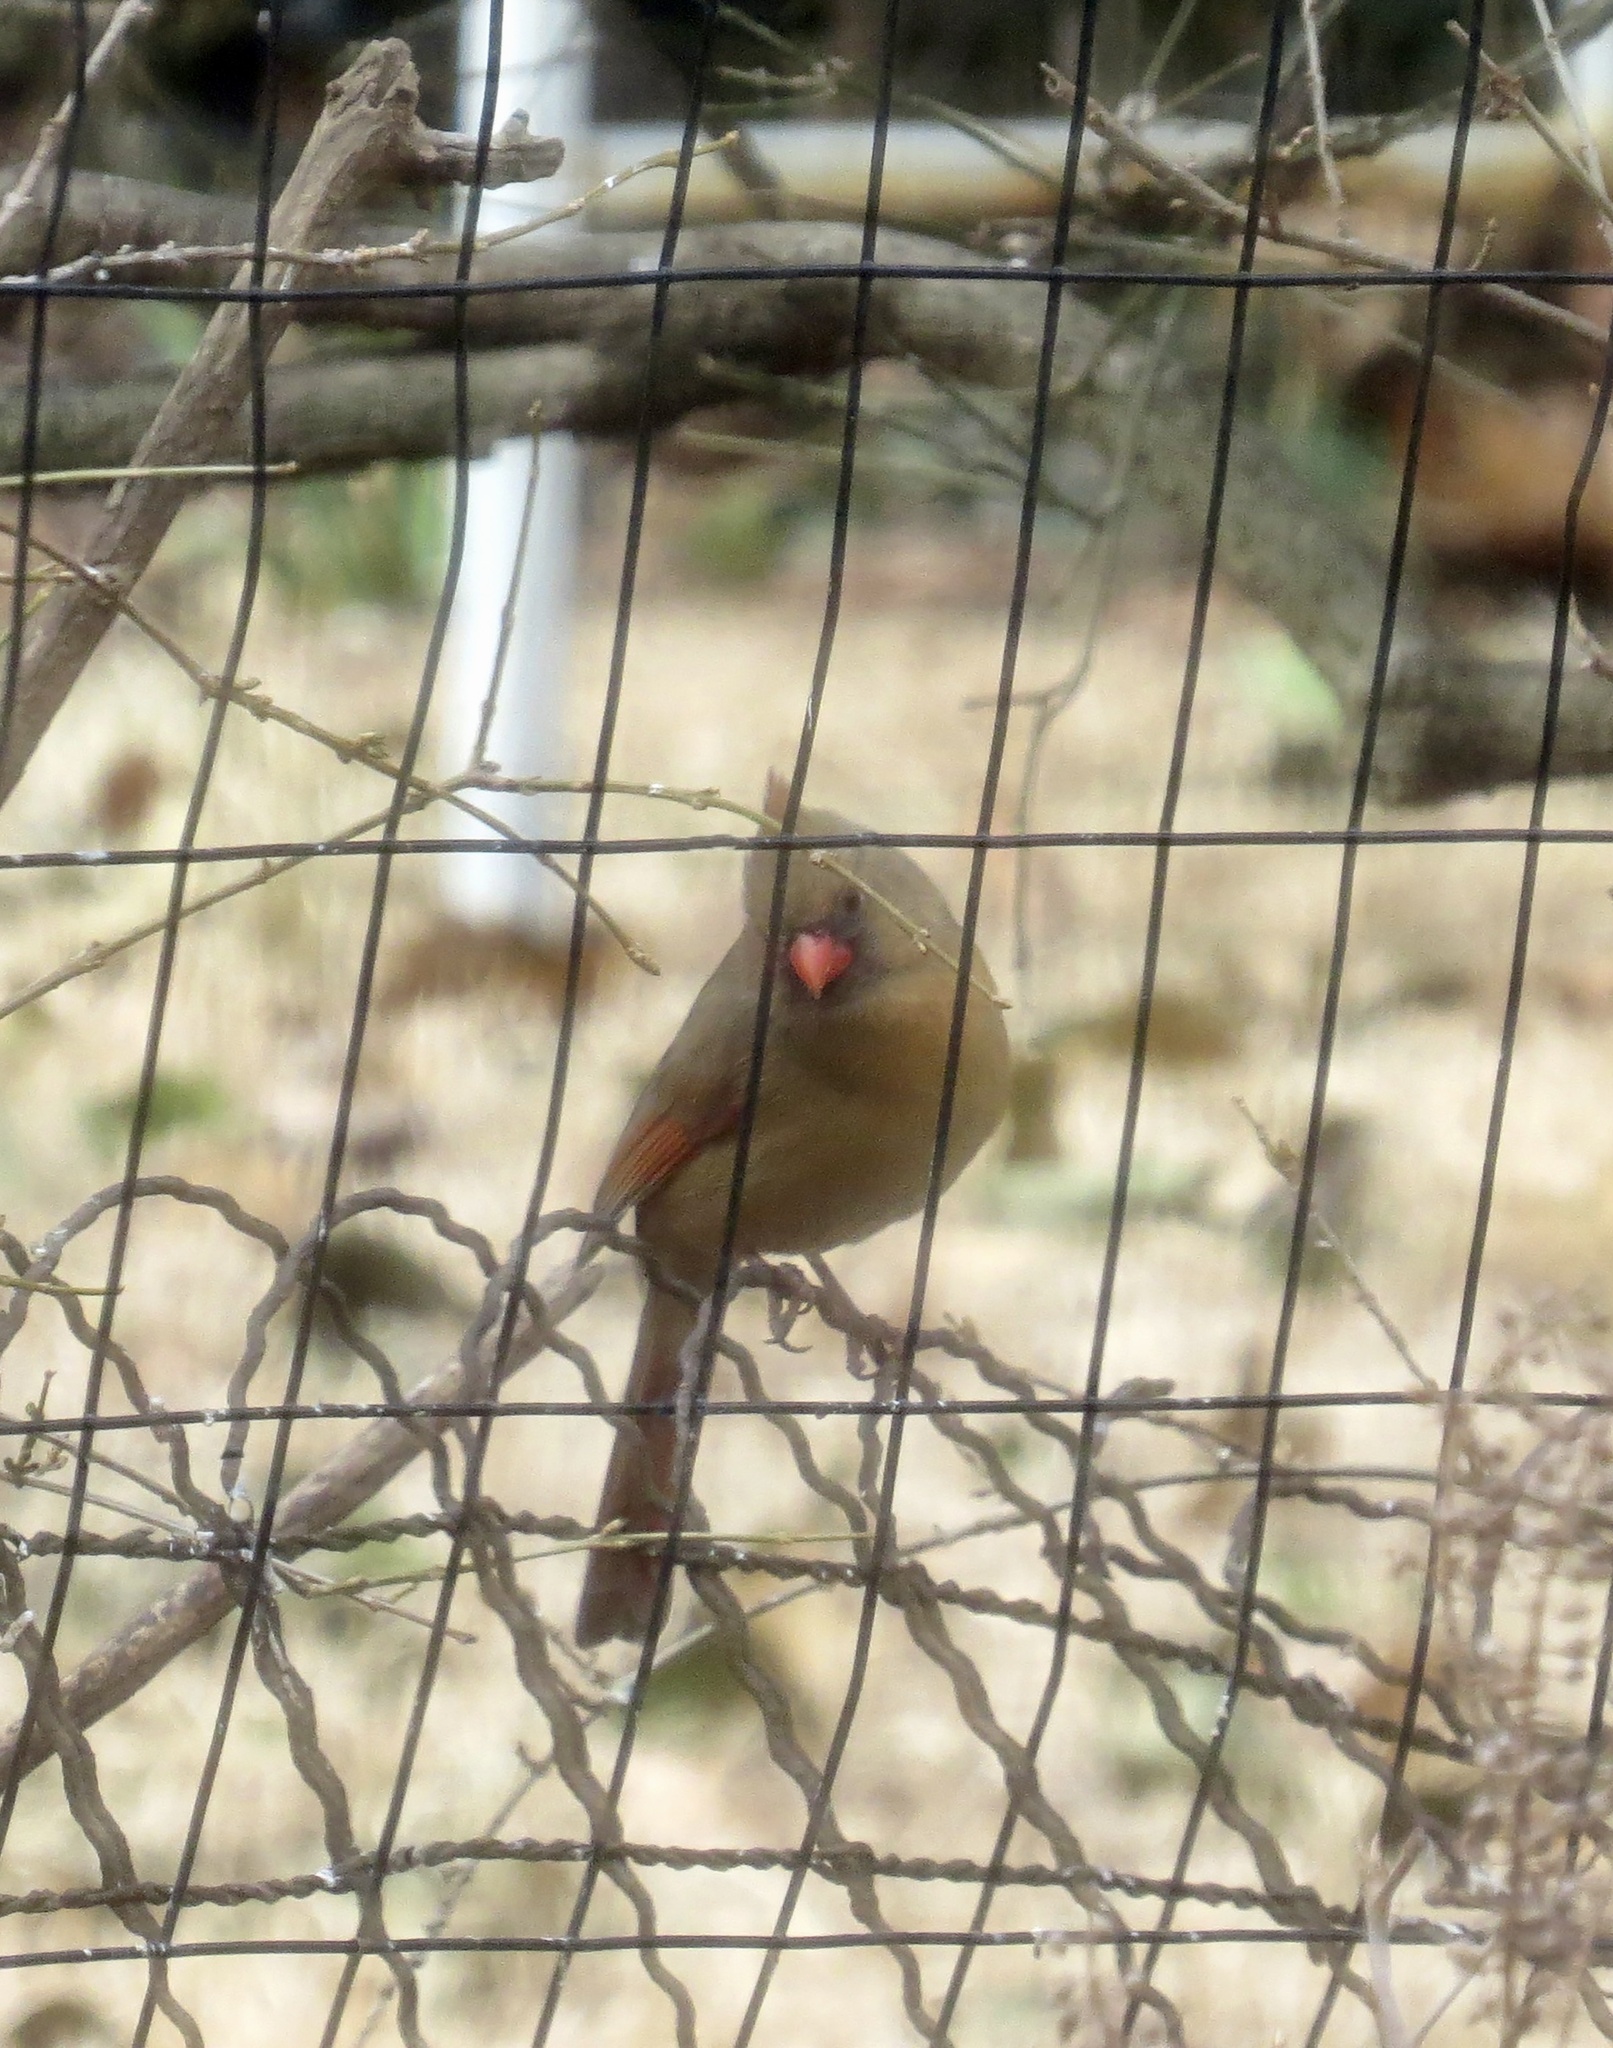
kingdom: Animalia
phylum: Chordata
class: Aves
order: Passeriformes
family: Cardinalidae
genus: Cardinalis
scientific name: Cardinalis cardinalis
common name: Northern cardinal
